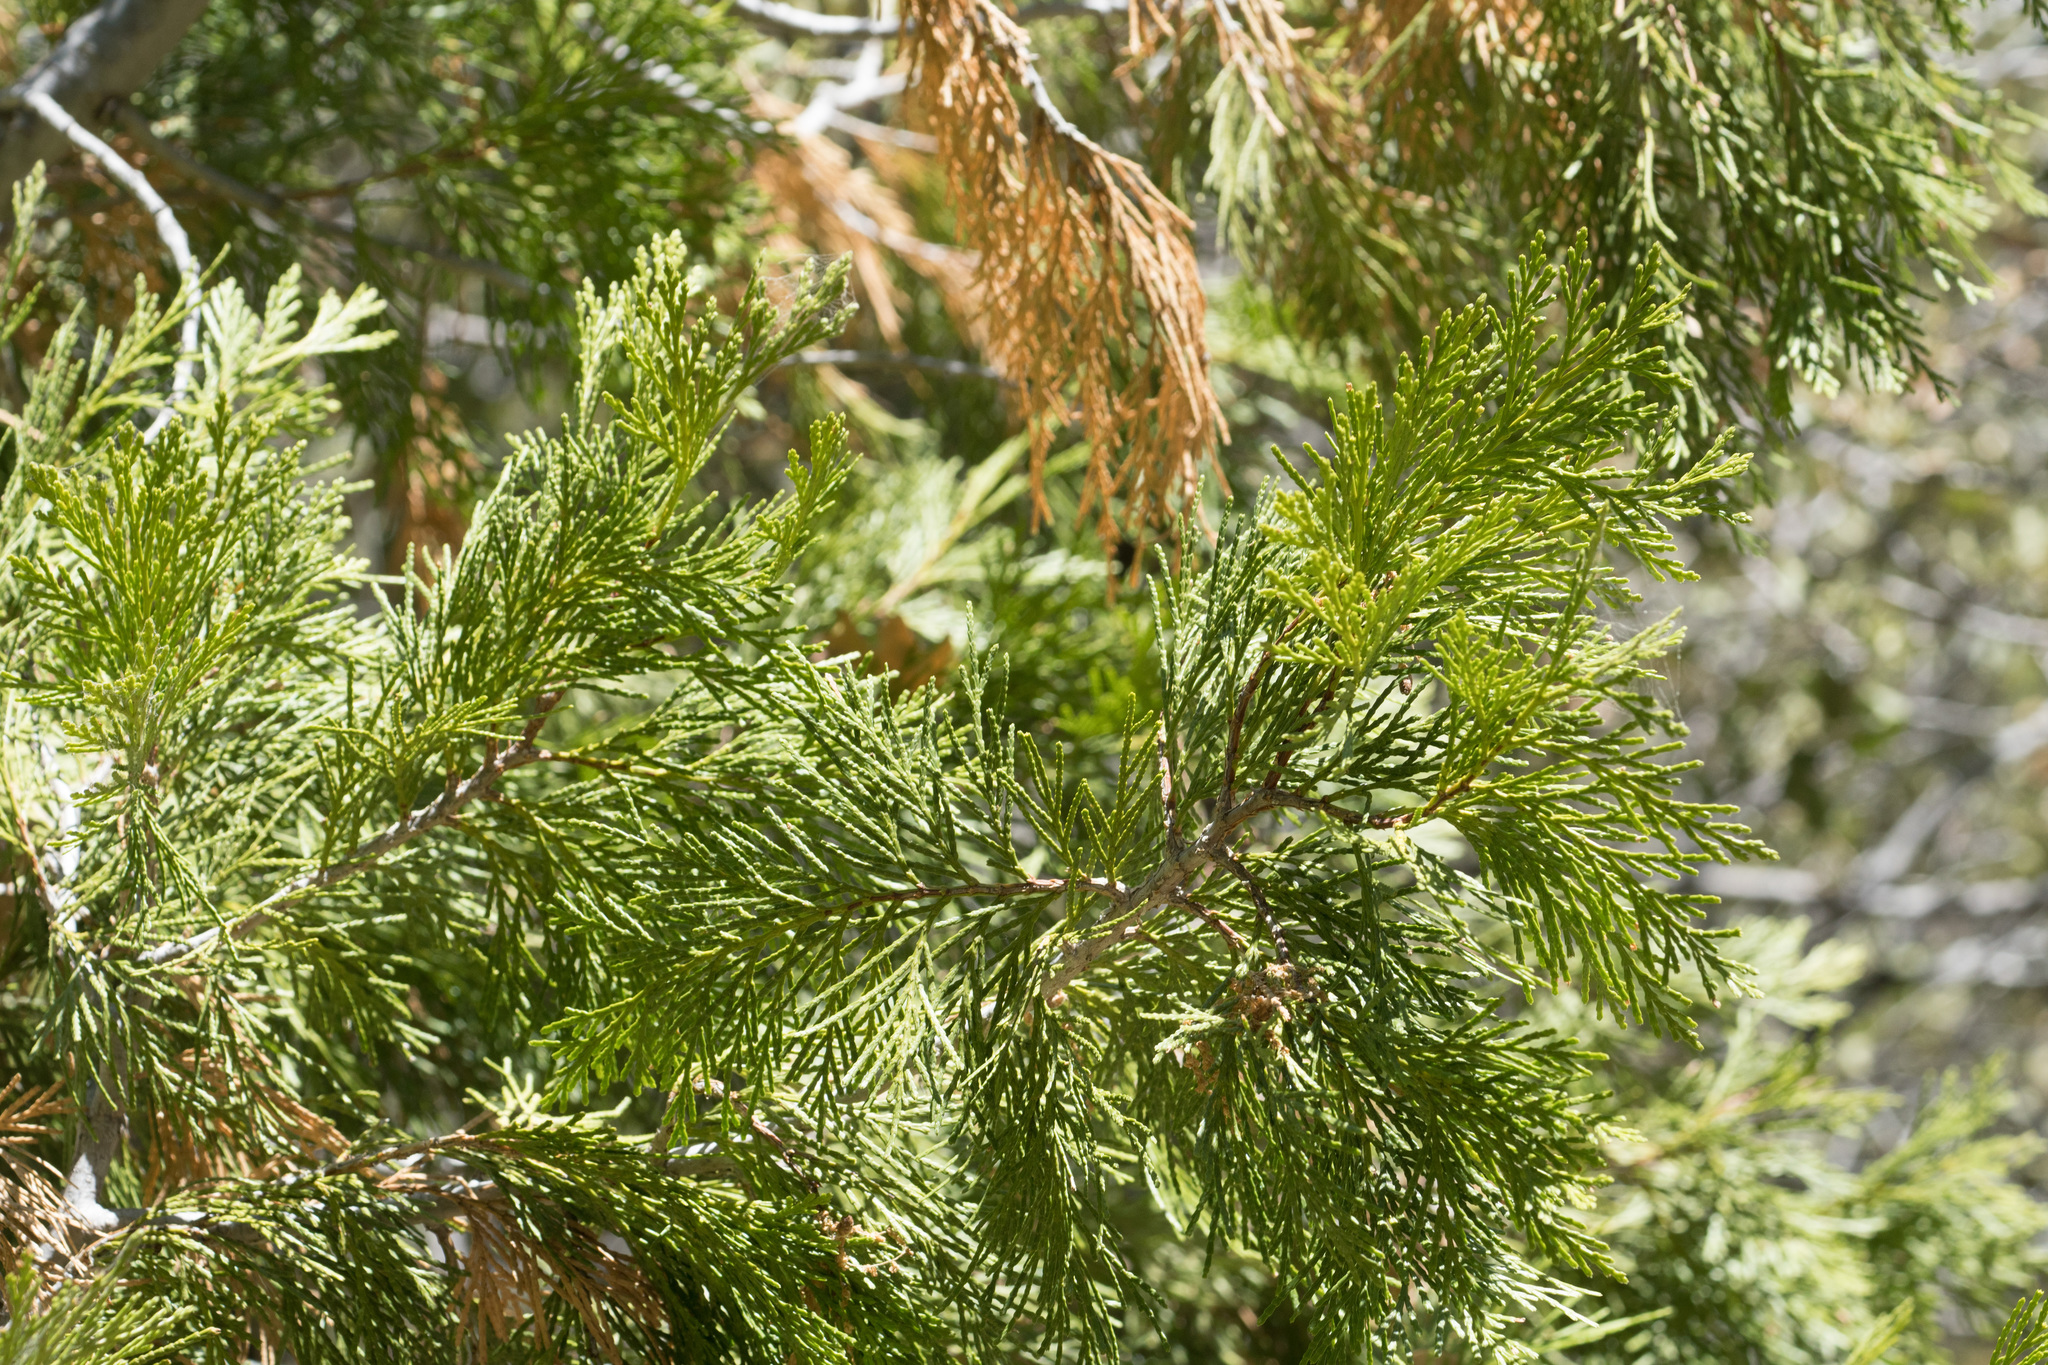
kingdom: Plantae
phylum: Tracheophyta
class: Pinopsida
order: Pinales
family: Cupressaceae
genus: Calocedrus
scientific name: Calocedrus decurrens
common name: Californian incense-cedar
